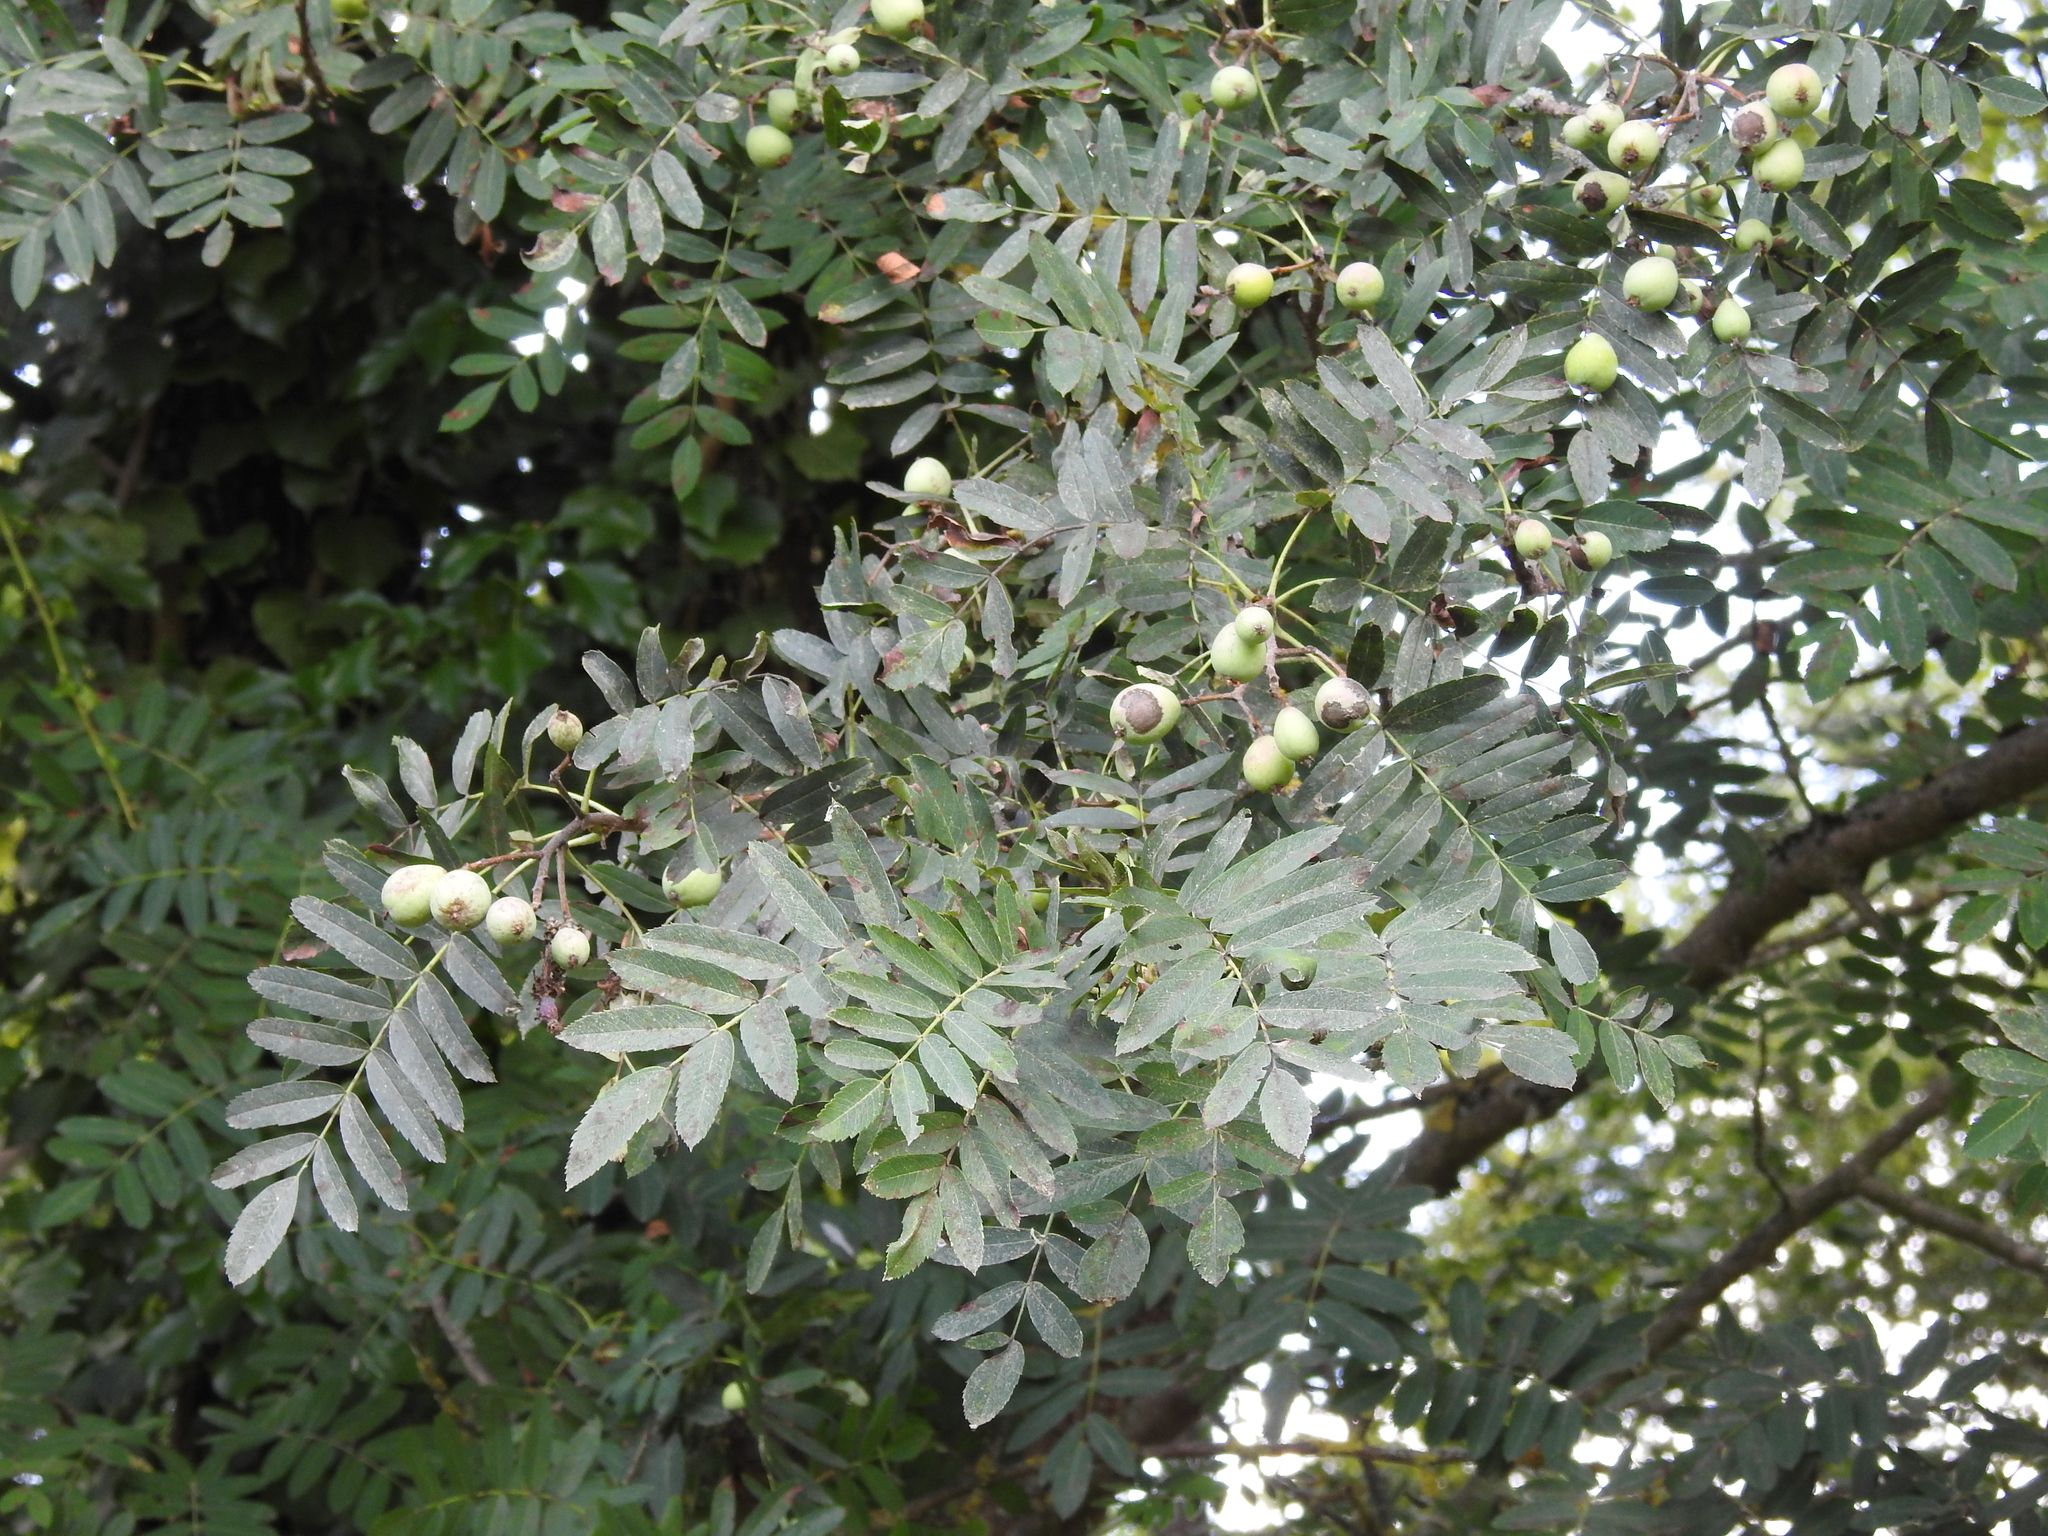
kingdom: Plantae
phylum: Tracheophyta
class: Magnoliopsida
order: Rosales
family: Rosaceae
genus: Cormus
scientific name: Cormus domestica
